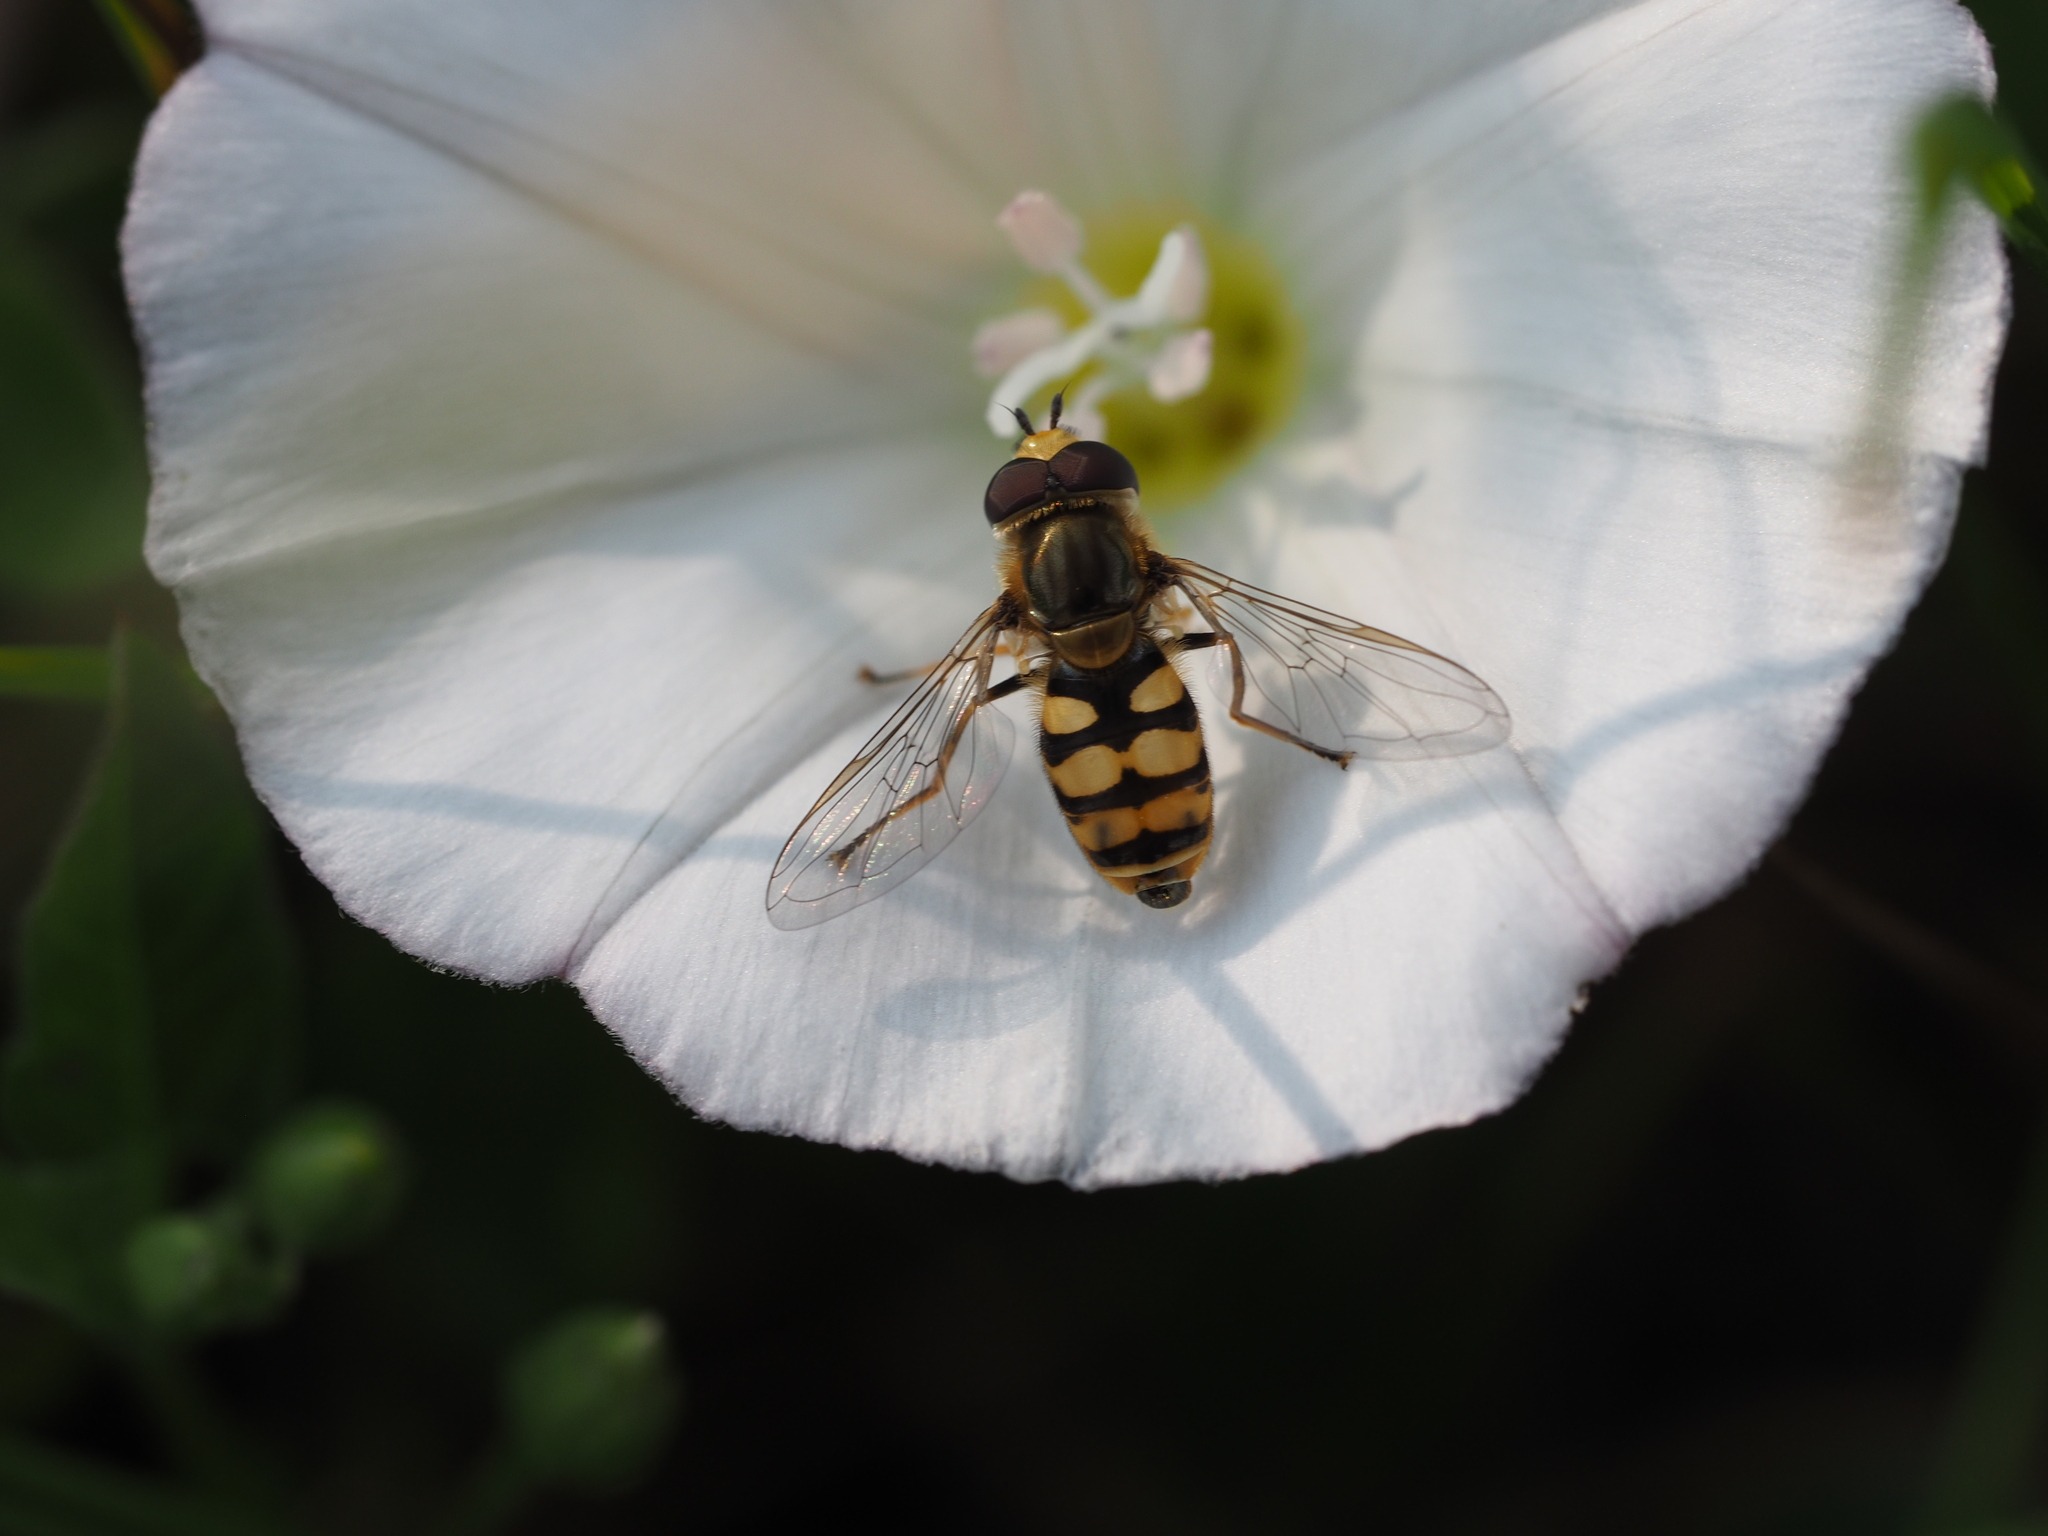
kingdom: Animalia
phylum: Arthropoda
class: Insecta
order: Diptera
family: Syrphidae
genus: Eupeodes
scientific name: Eupeodes corollae
